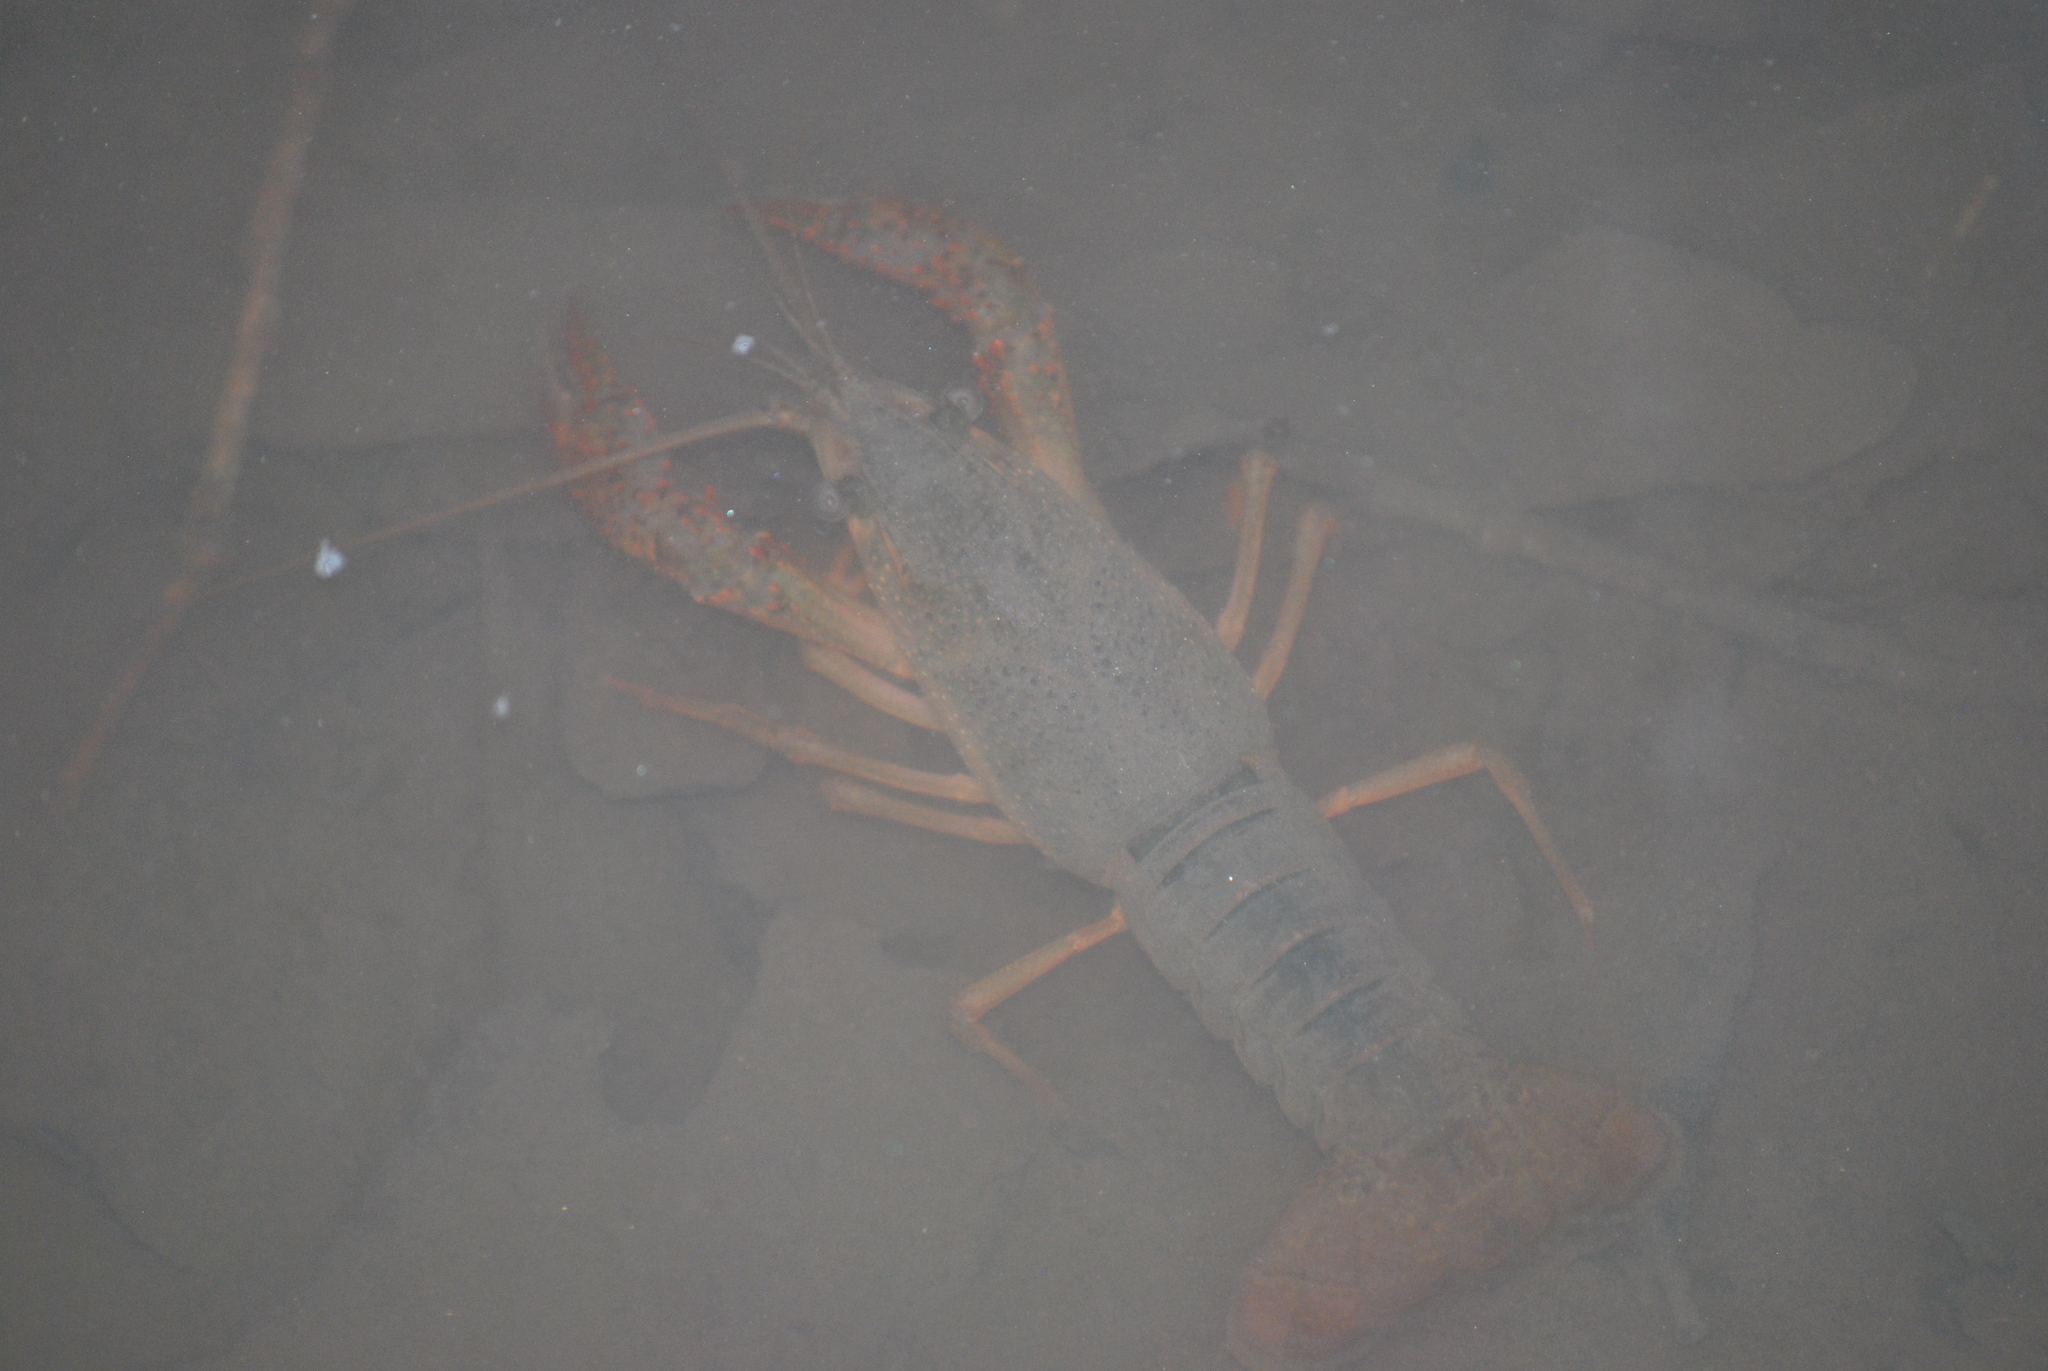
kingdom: Animalia
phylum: Arthropoda
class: Malacostraca
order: Decapoda
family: Cambaridae
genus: Procambarus
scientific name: Procambarus clarkii
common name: Red swamp crayfish
